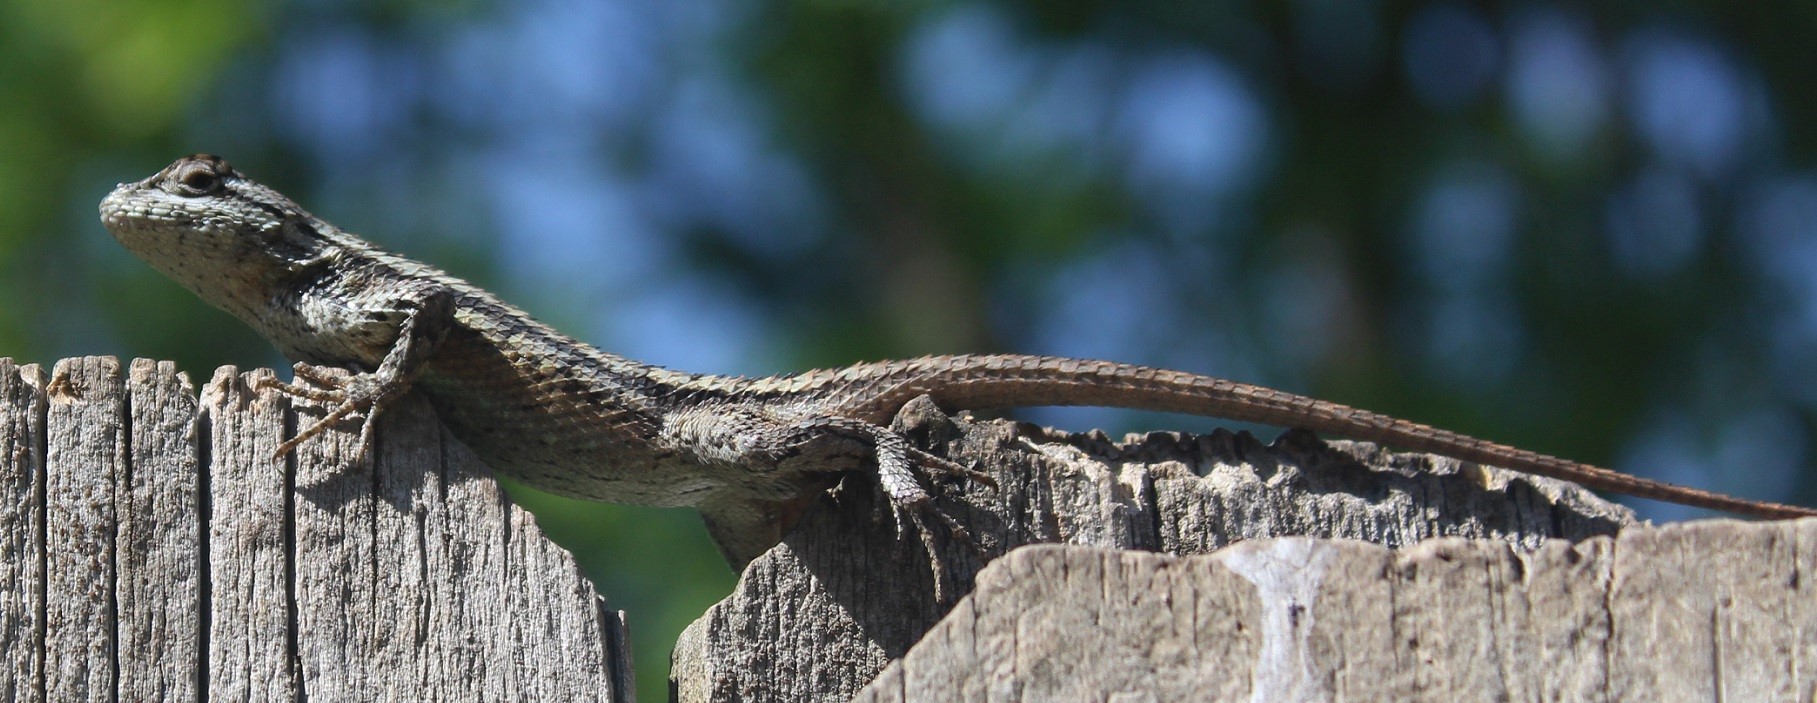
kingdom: Animalia
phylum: Chordata
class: Squamata
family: Phrynosomatidae
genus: Sceloporus
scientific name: Sceloporus olivaceus
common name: Texas spiny lizard
